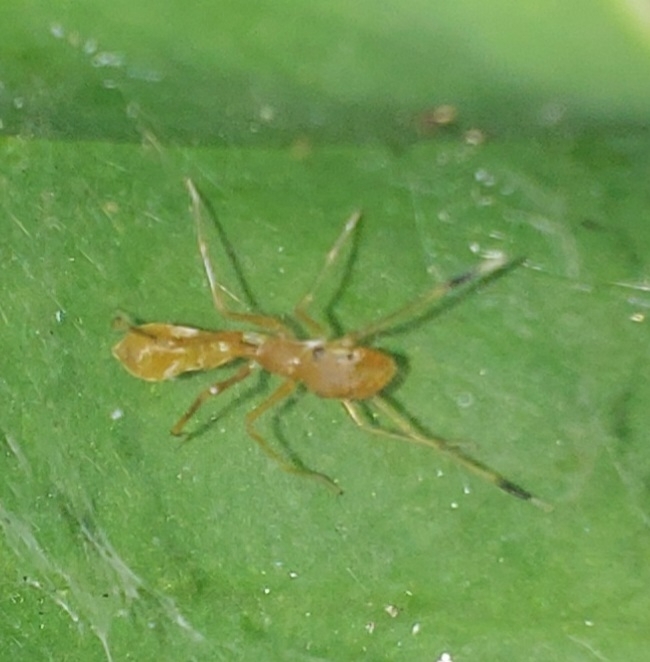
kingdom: Animalia
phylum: Arthropoda
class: Arachnida
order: Araneae
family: Salticidae
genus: Myrmaplata
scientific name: Myrmaplata plataleoides
